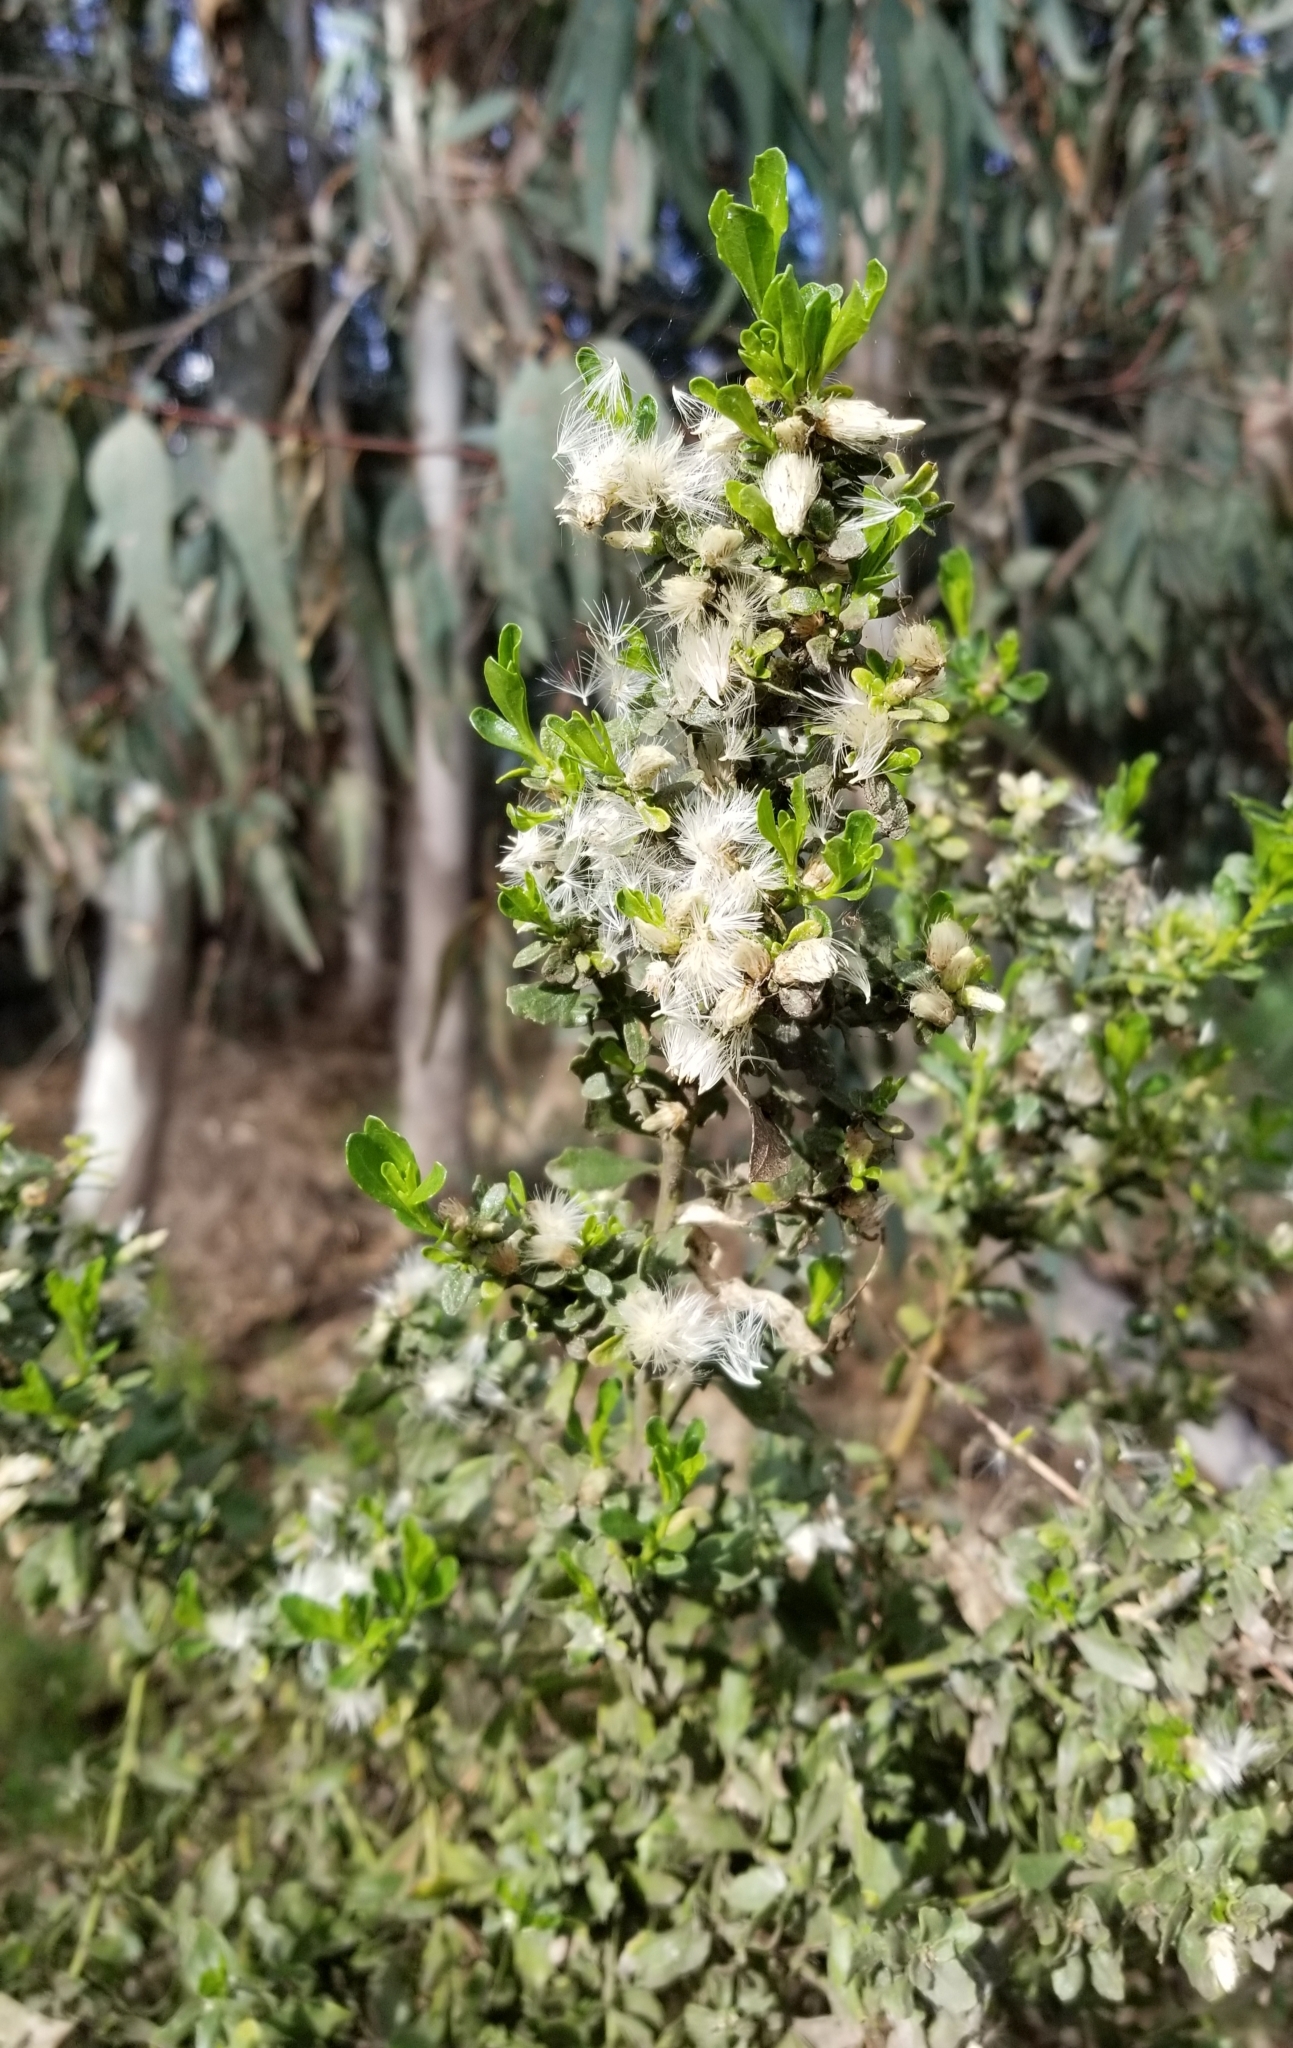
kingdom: Plantae
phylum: Tracheophyta
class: Magnoliopsida
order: Asterales
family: Asteraceae
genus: Baccharis
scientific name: Baccharis pilularis
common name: Coyotebrush
